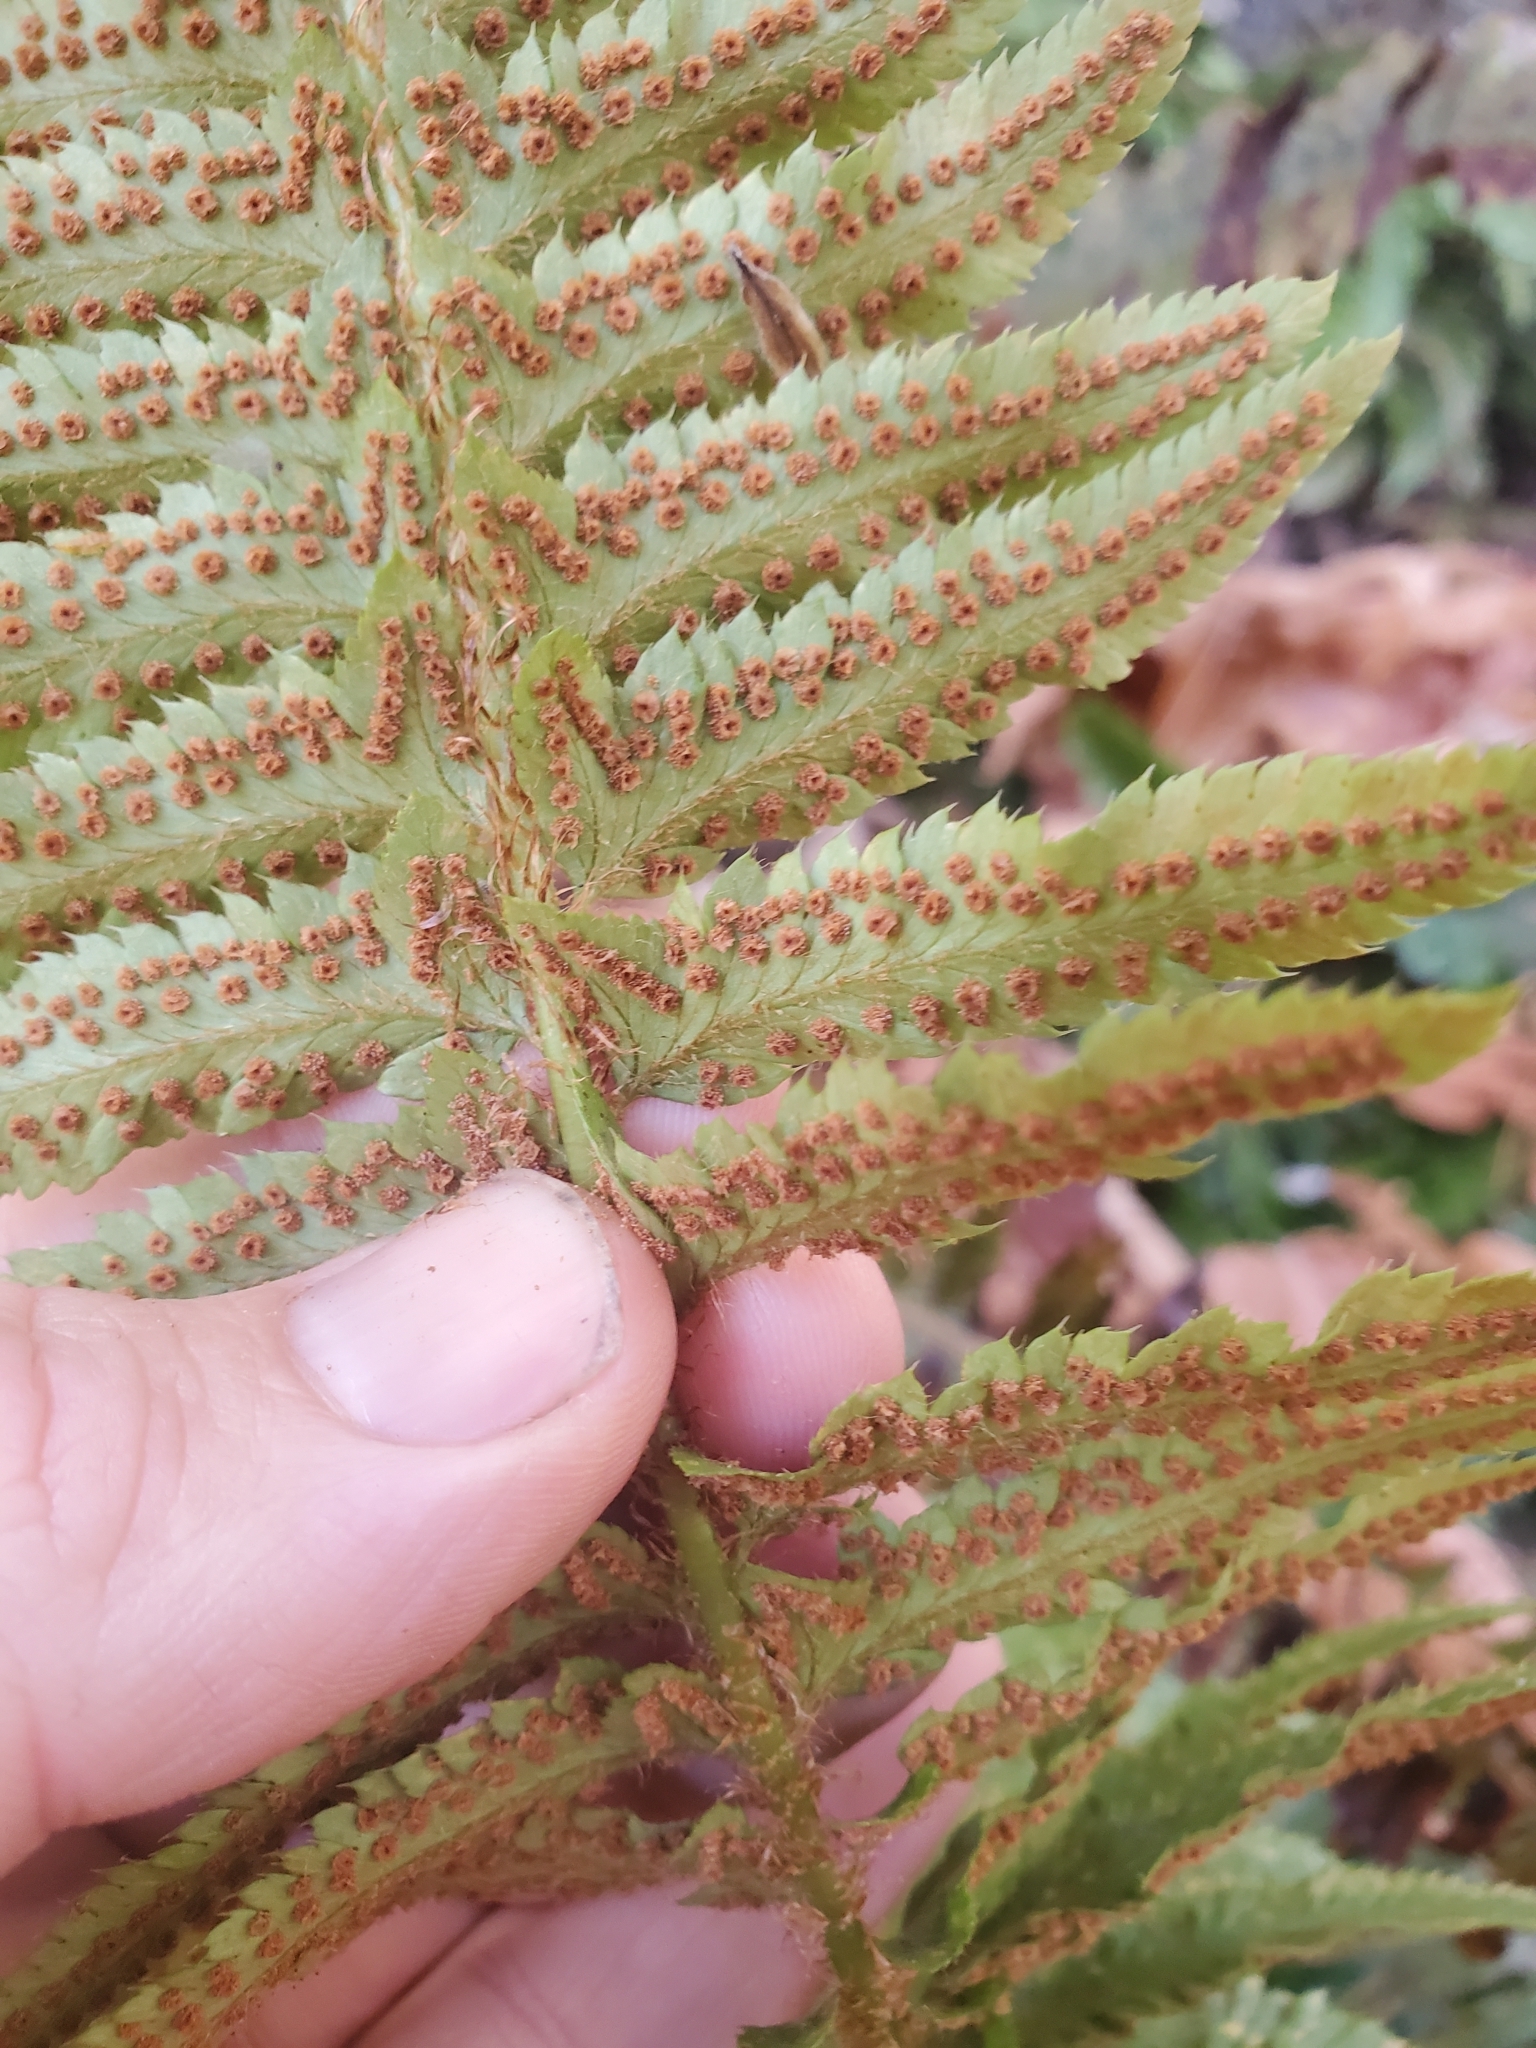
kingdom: Plantae
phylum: Tracheophyta
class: Polypodiopsida
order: Polypodiales
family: Dryopteridaceae
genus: Polystichum
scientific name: Polystichum californicum
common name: California sword fern
